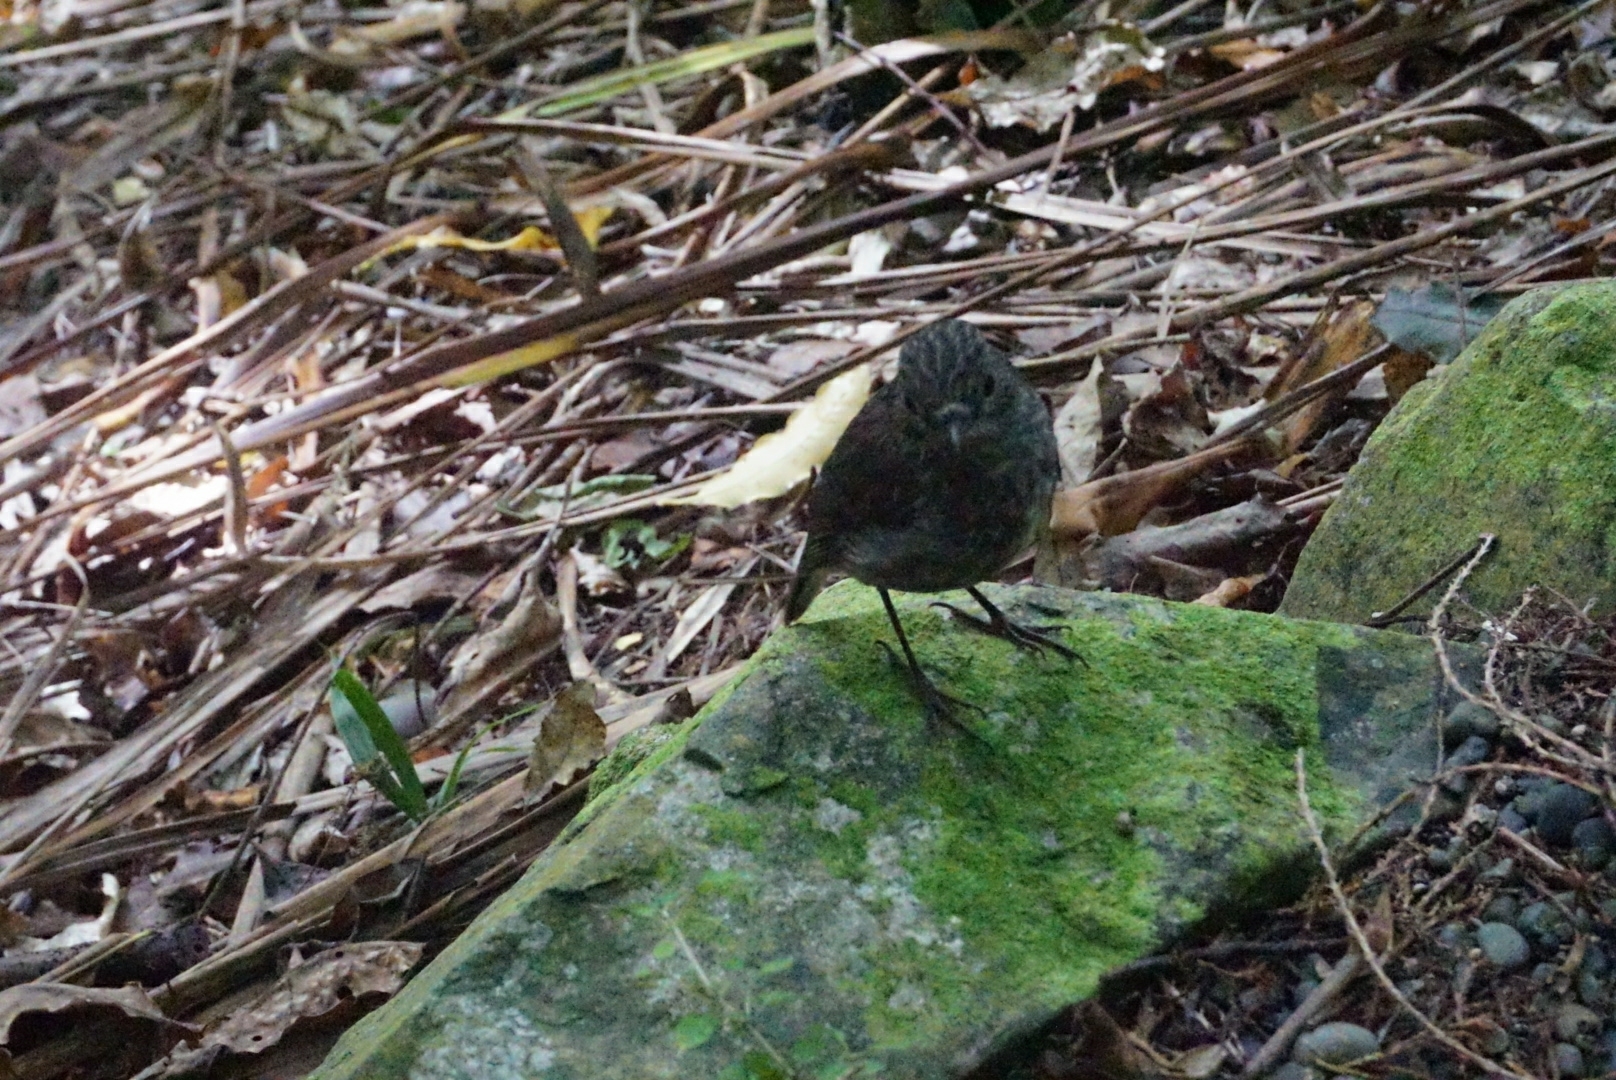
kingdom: Animalia
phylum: Chordata
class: Aves
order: Passeriformes
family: Petroicidae
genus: Petroica
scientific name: Petroica australis
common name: New zealand robin
